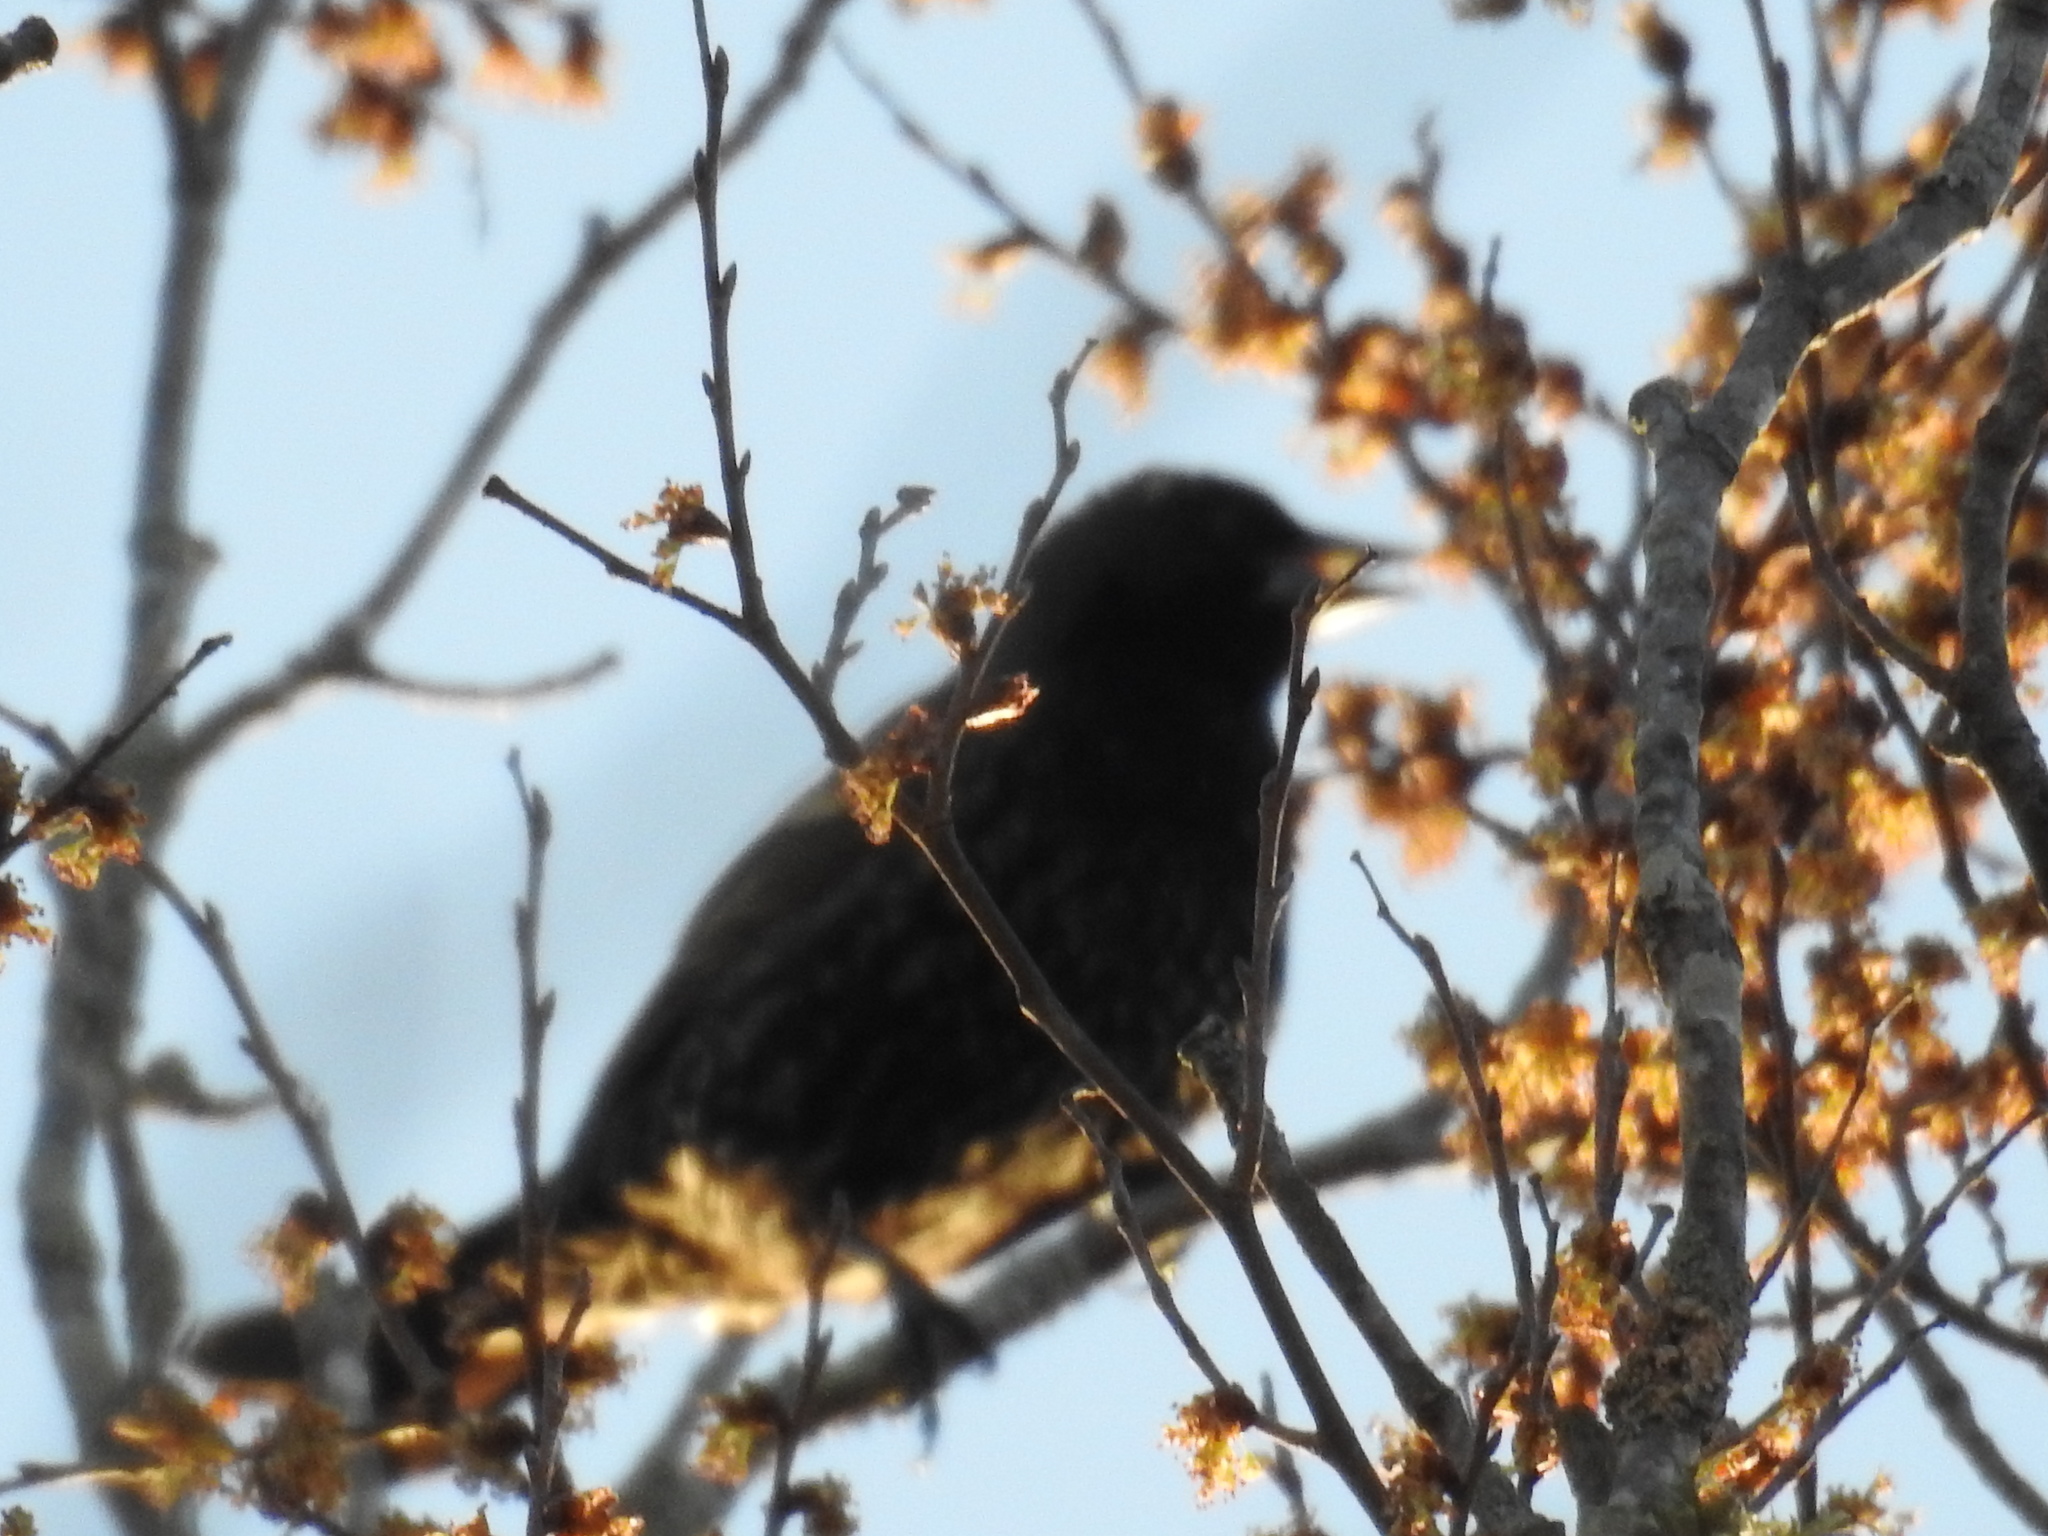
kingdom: Animalia
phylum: Chordata
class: Aves
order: Passeriformes
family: Sturnidae
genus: Sturnus
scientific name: Sturnus vulgaris
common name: Common starling
